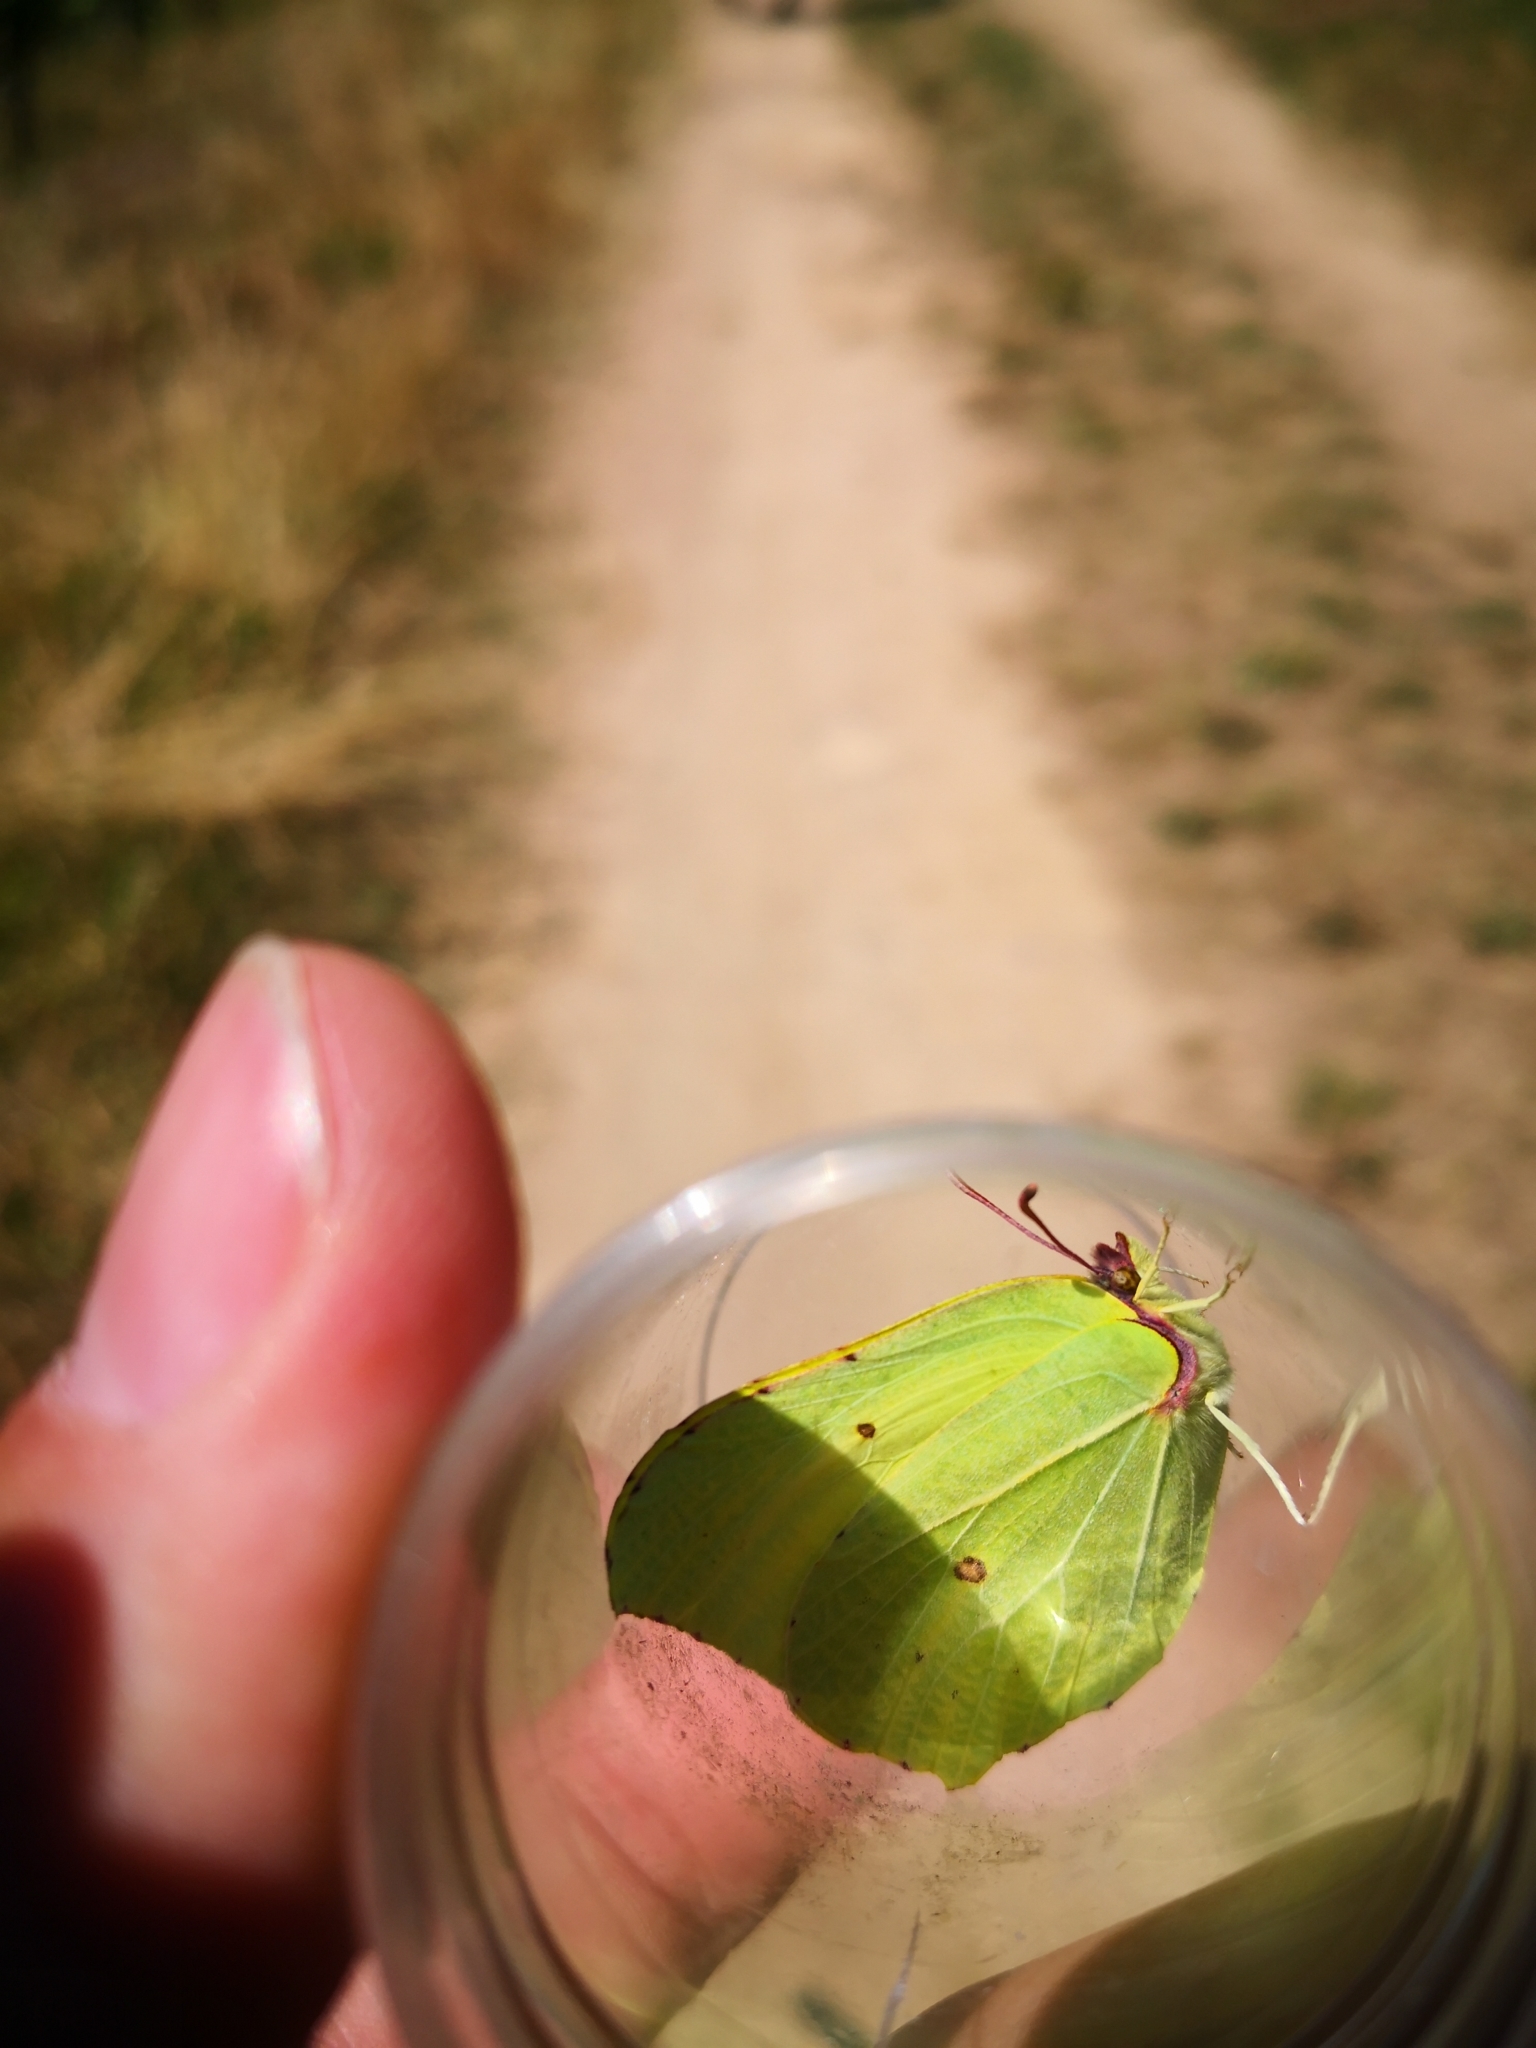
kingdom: Animalia
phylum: Arthropoda
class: Insecta
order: Lepidoptera
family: Pieridae
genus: Gonepteryx
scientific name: Gonepteryx rhamni
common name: Brimstone
